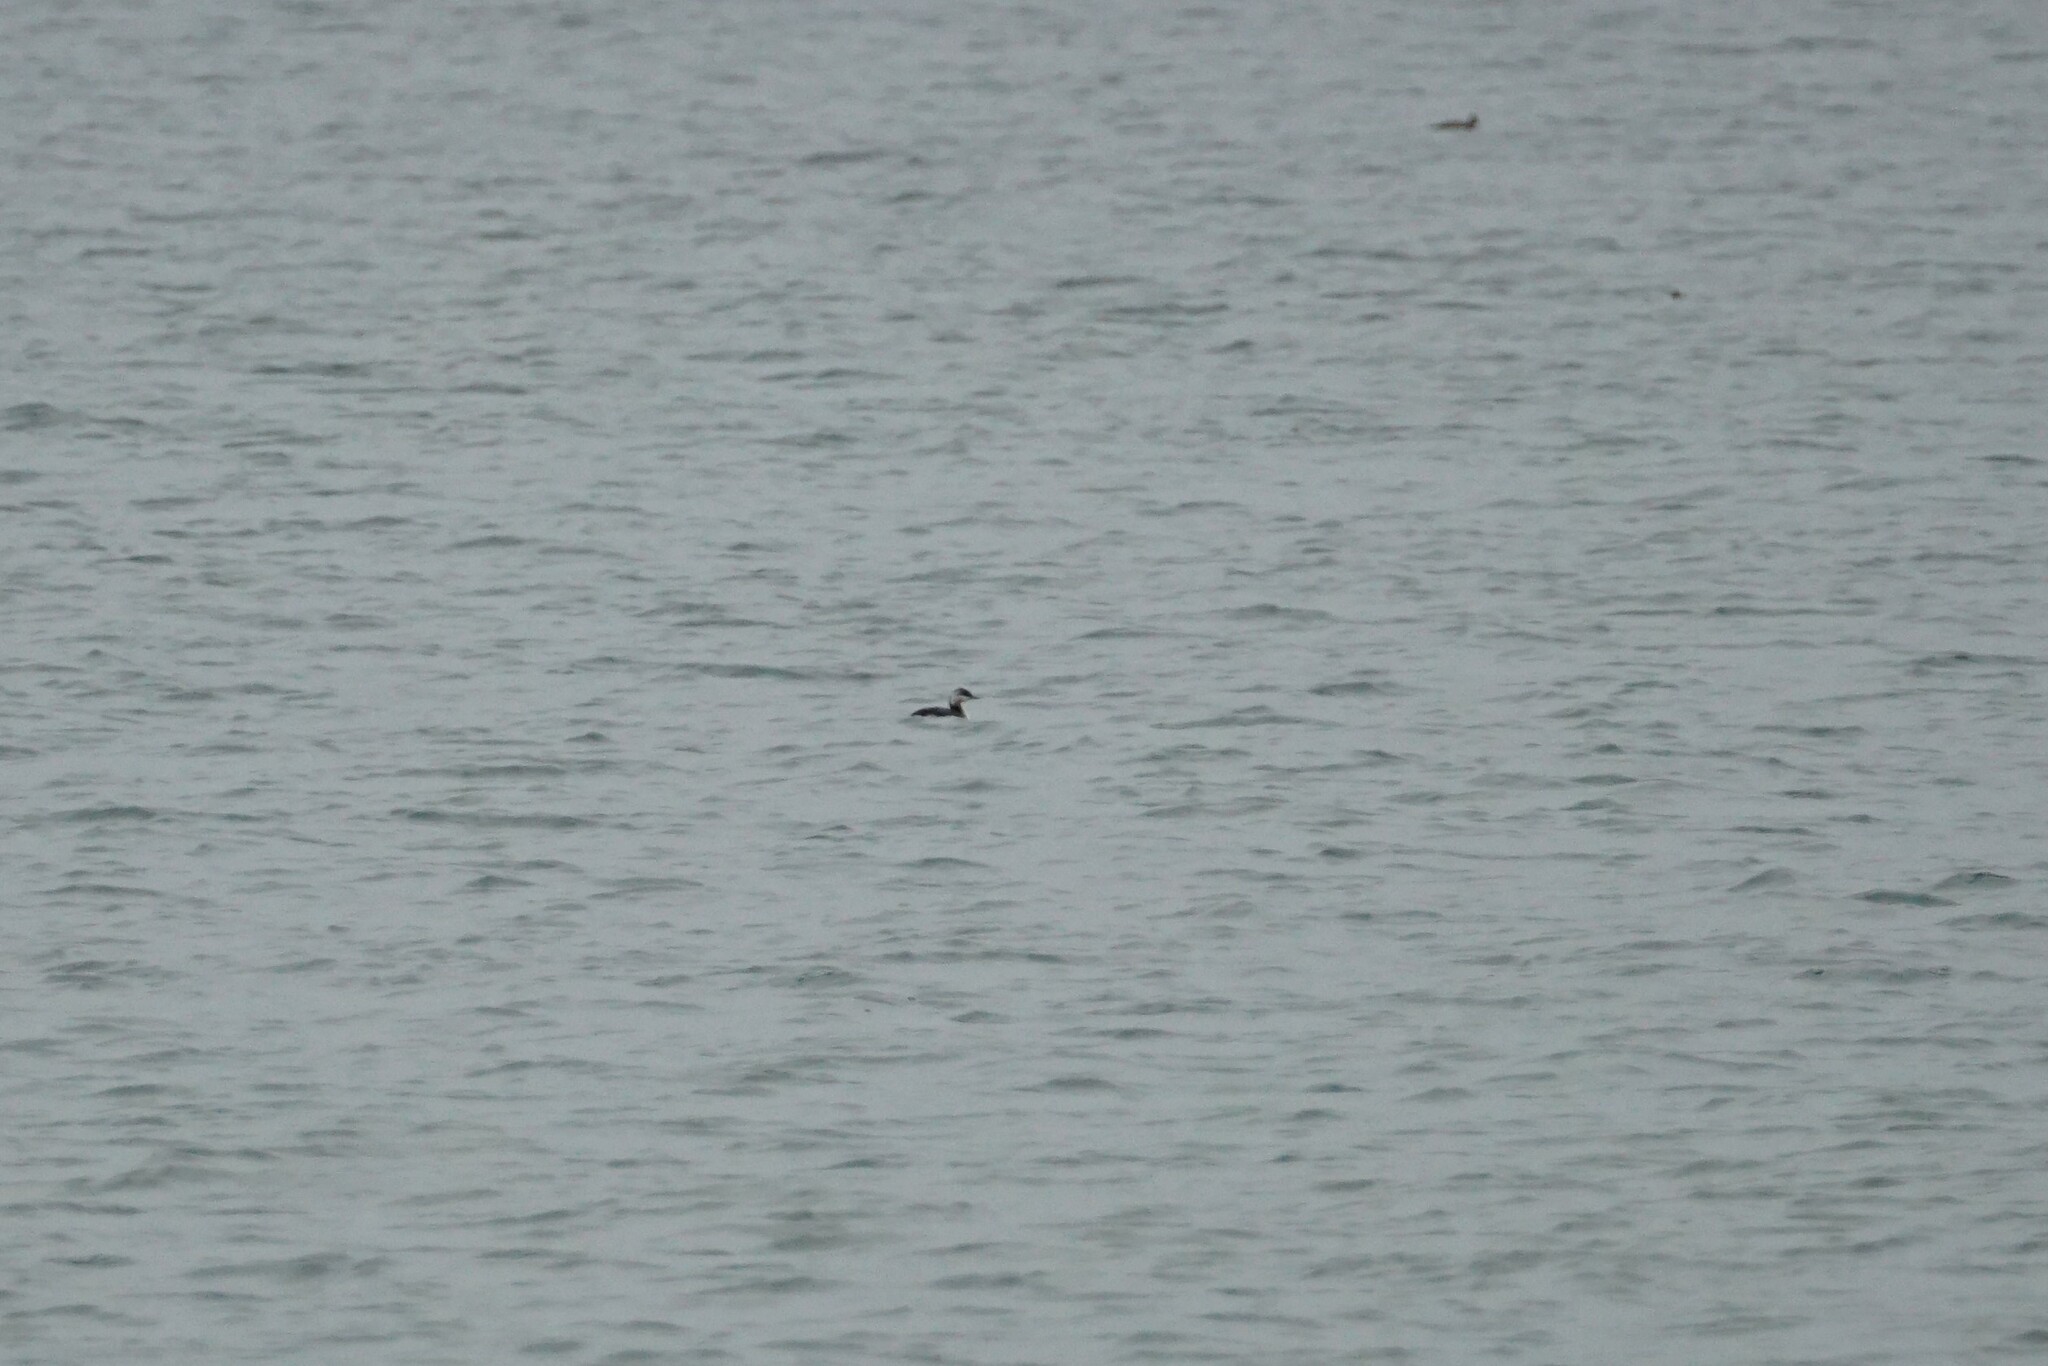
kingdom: Animalia
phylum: Chordata
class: Aves
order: Podicipediformes
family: Podicipedidae
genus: Podiceps
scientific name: Podiceps auritus
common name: Horned grebe
